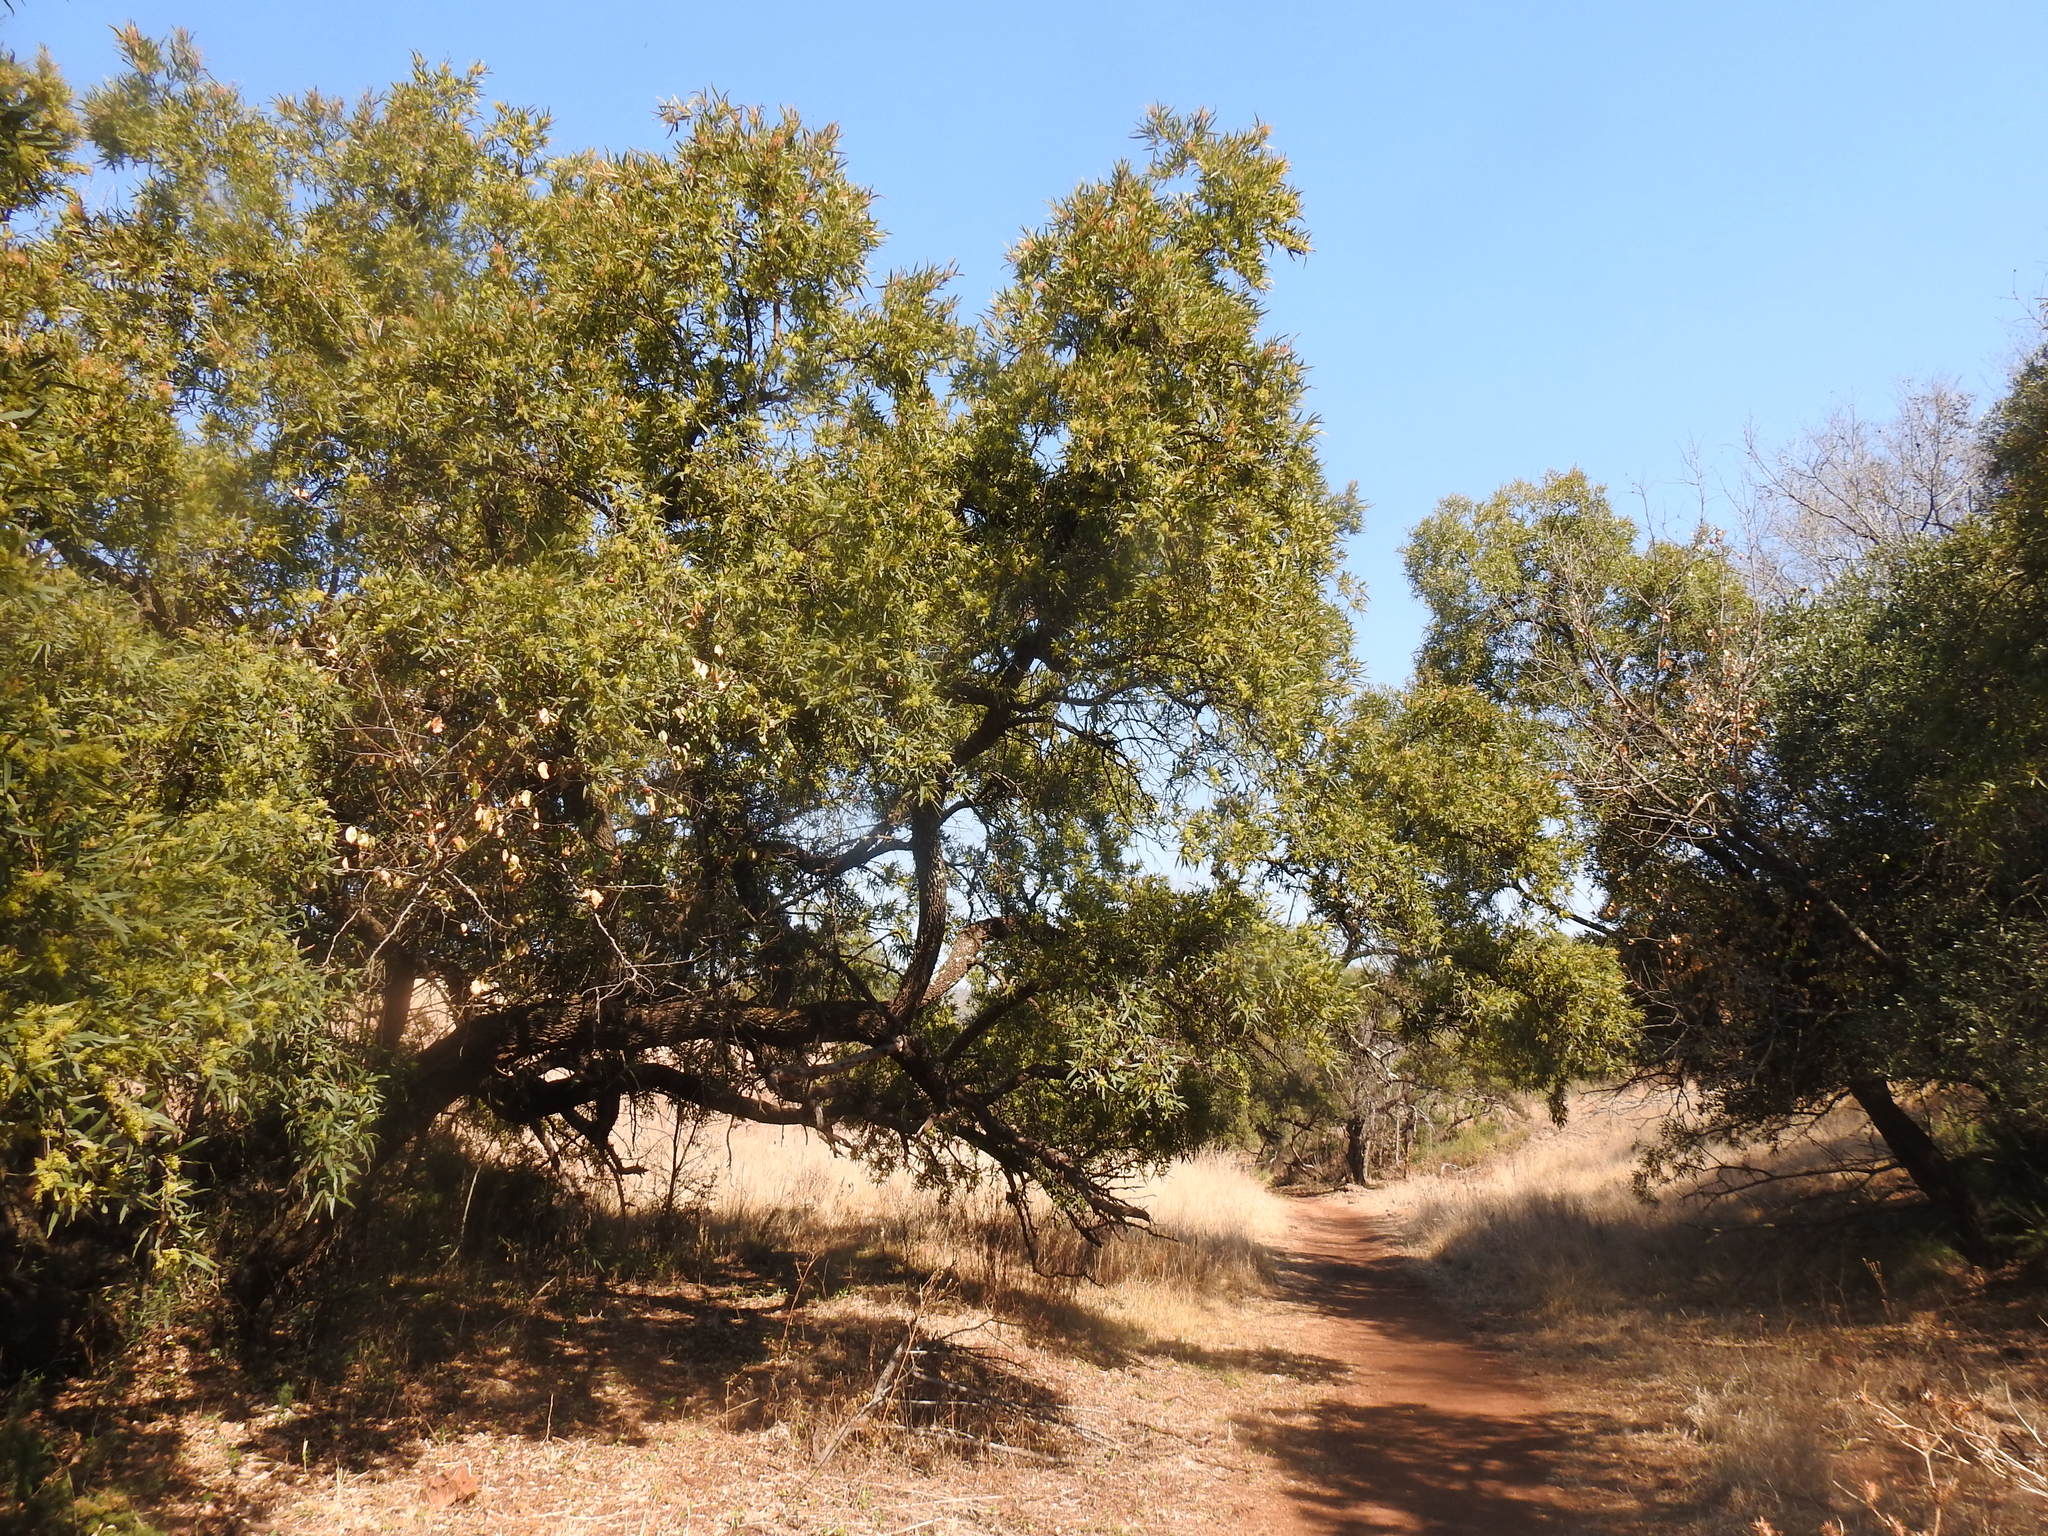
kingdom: Plantae
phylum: Tracheophyta
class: Magnoliopsida
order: Sapindales
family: Anacardiaceae
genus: Searsia
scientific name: Searsia lancea
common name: Cashew
